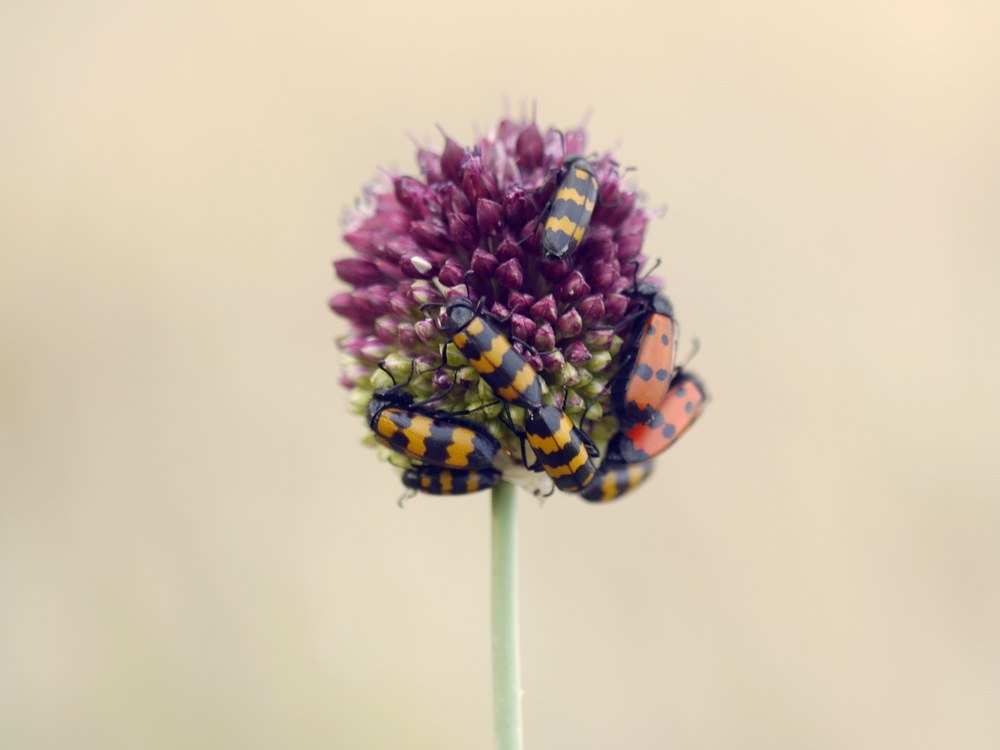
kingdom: Animalia
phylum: Arthropoda
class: Insecta
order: Coleoptera
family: Meloidae
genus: Mylabris
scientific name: Mylabris quadripunctata
